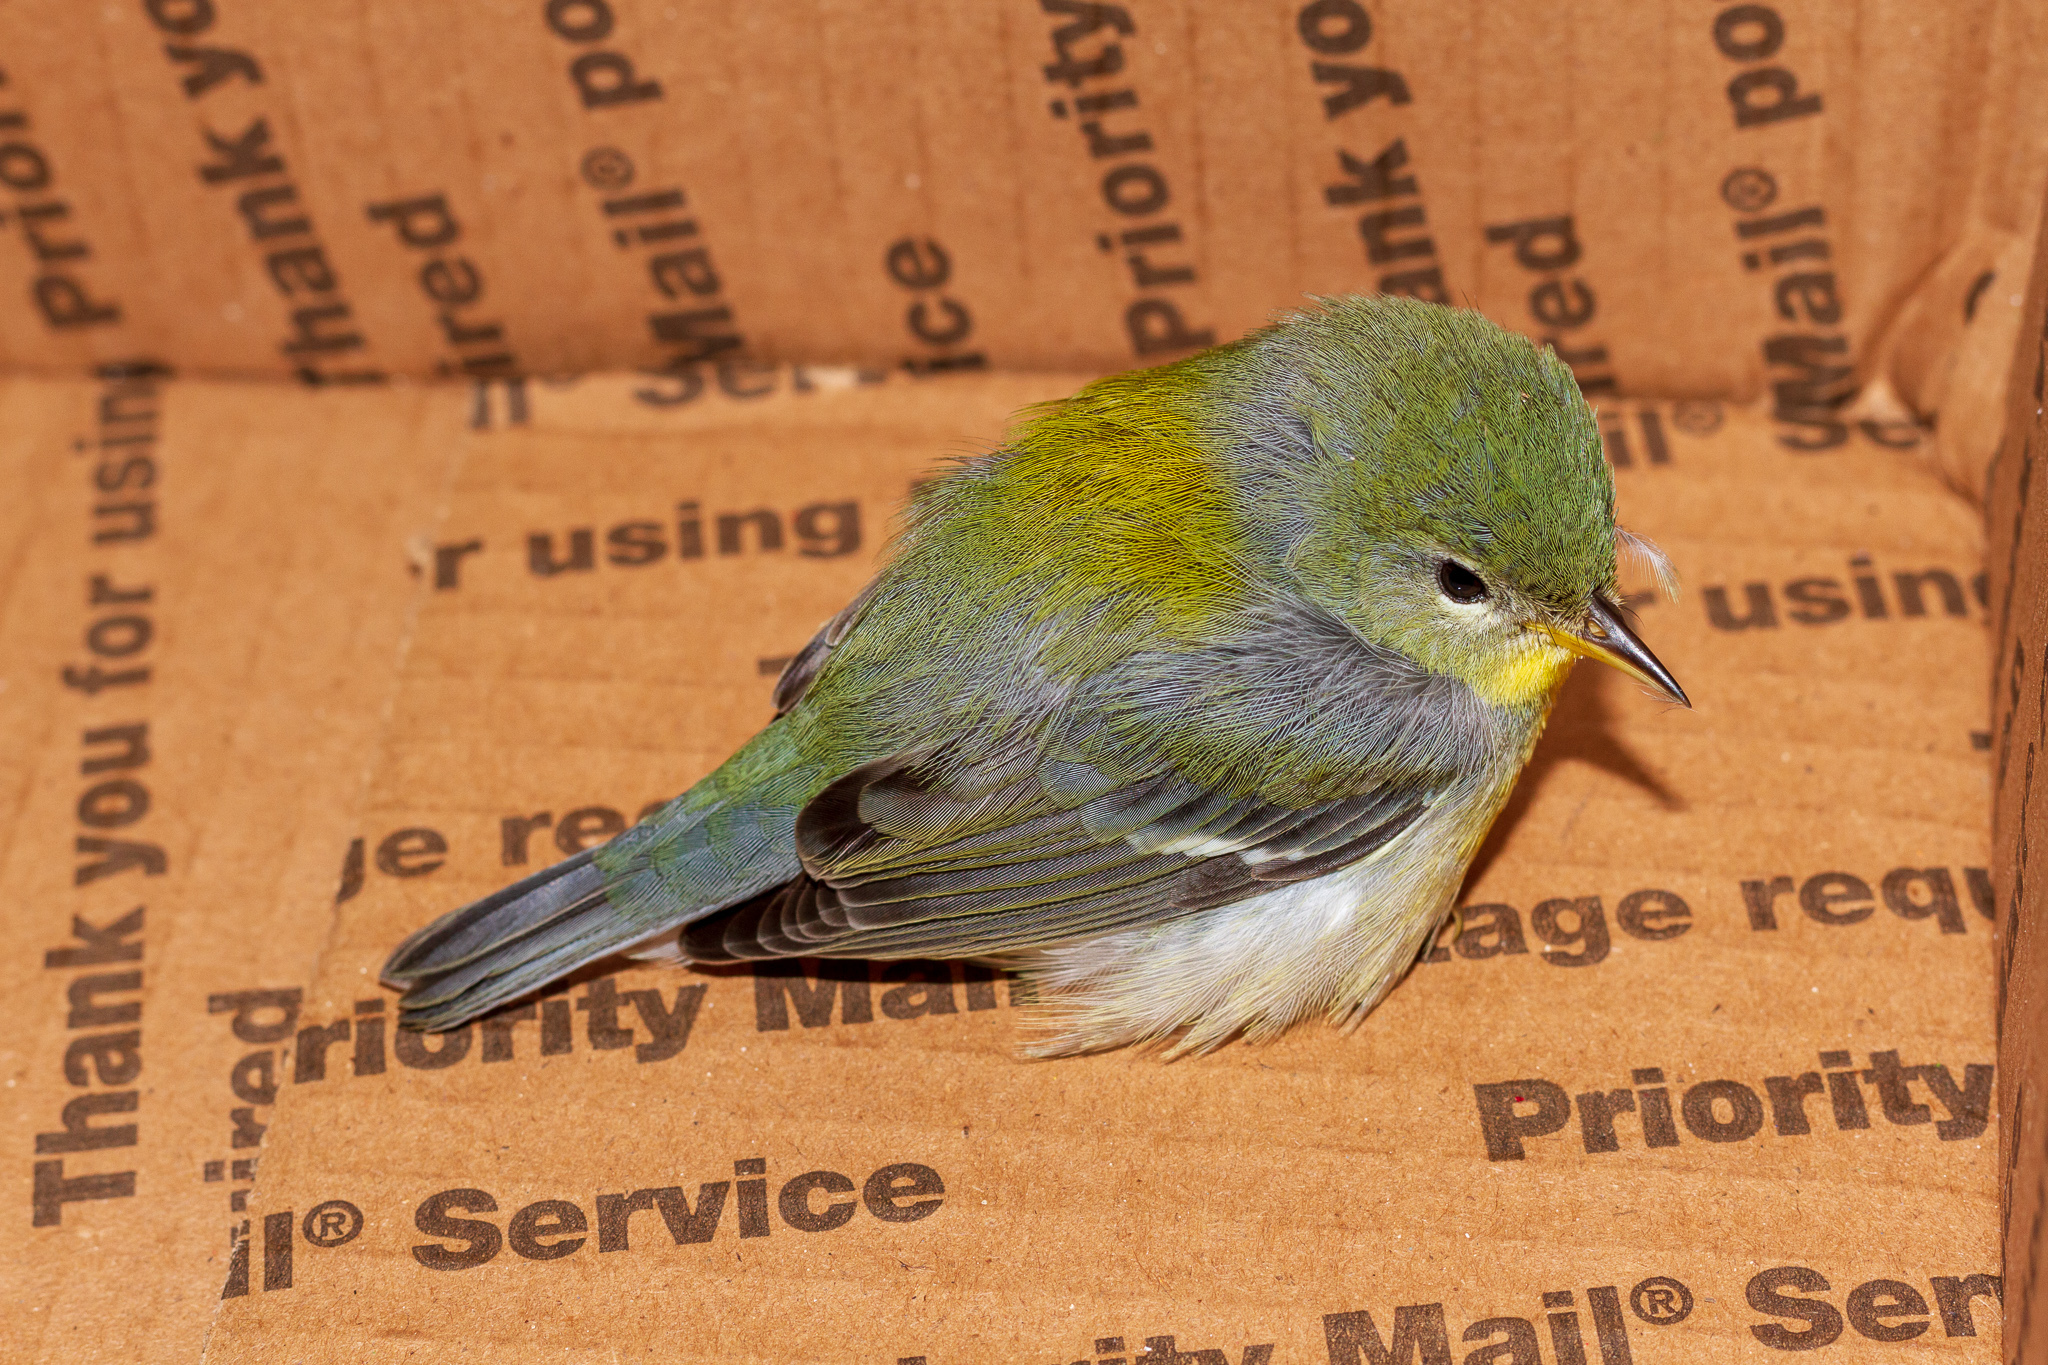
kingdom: Animalia
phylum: Chordata
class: Aves
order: Passeriformes
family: Parulidae
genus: Setophaga
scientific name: Setophaga americana
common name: Northern parula
